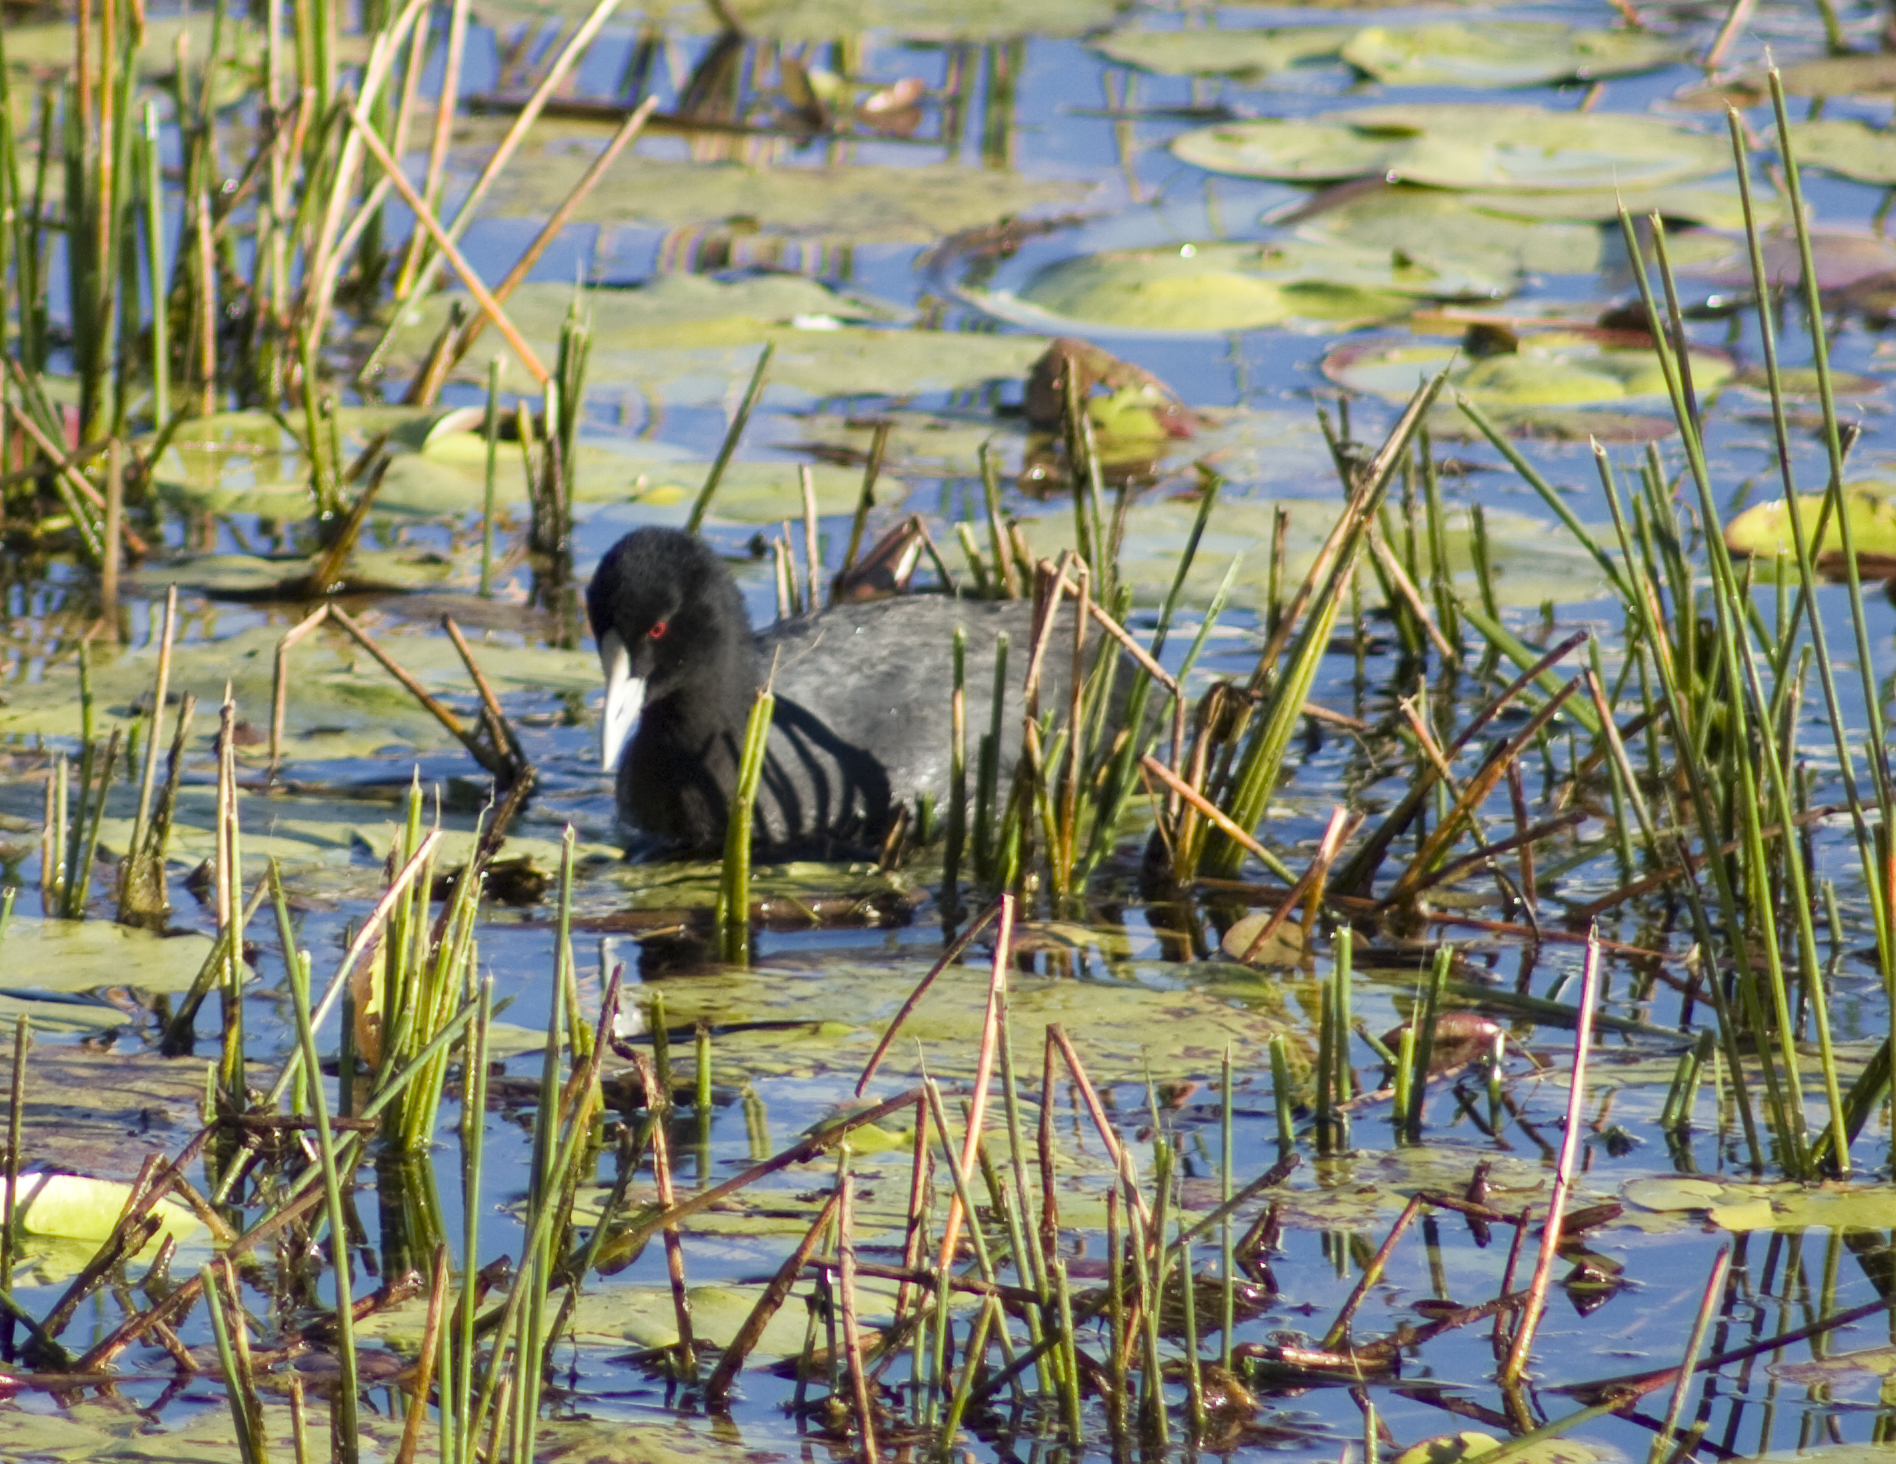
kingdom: Animalia
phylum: Chordata
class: Aves
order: Gruiformes
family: Rallidae
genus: Fulica
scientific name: Fulica atra
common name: Eurasian coot
